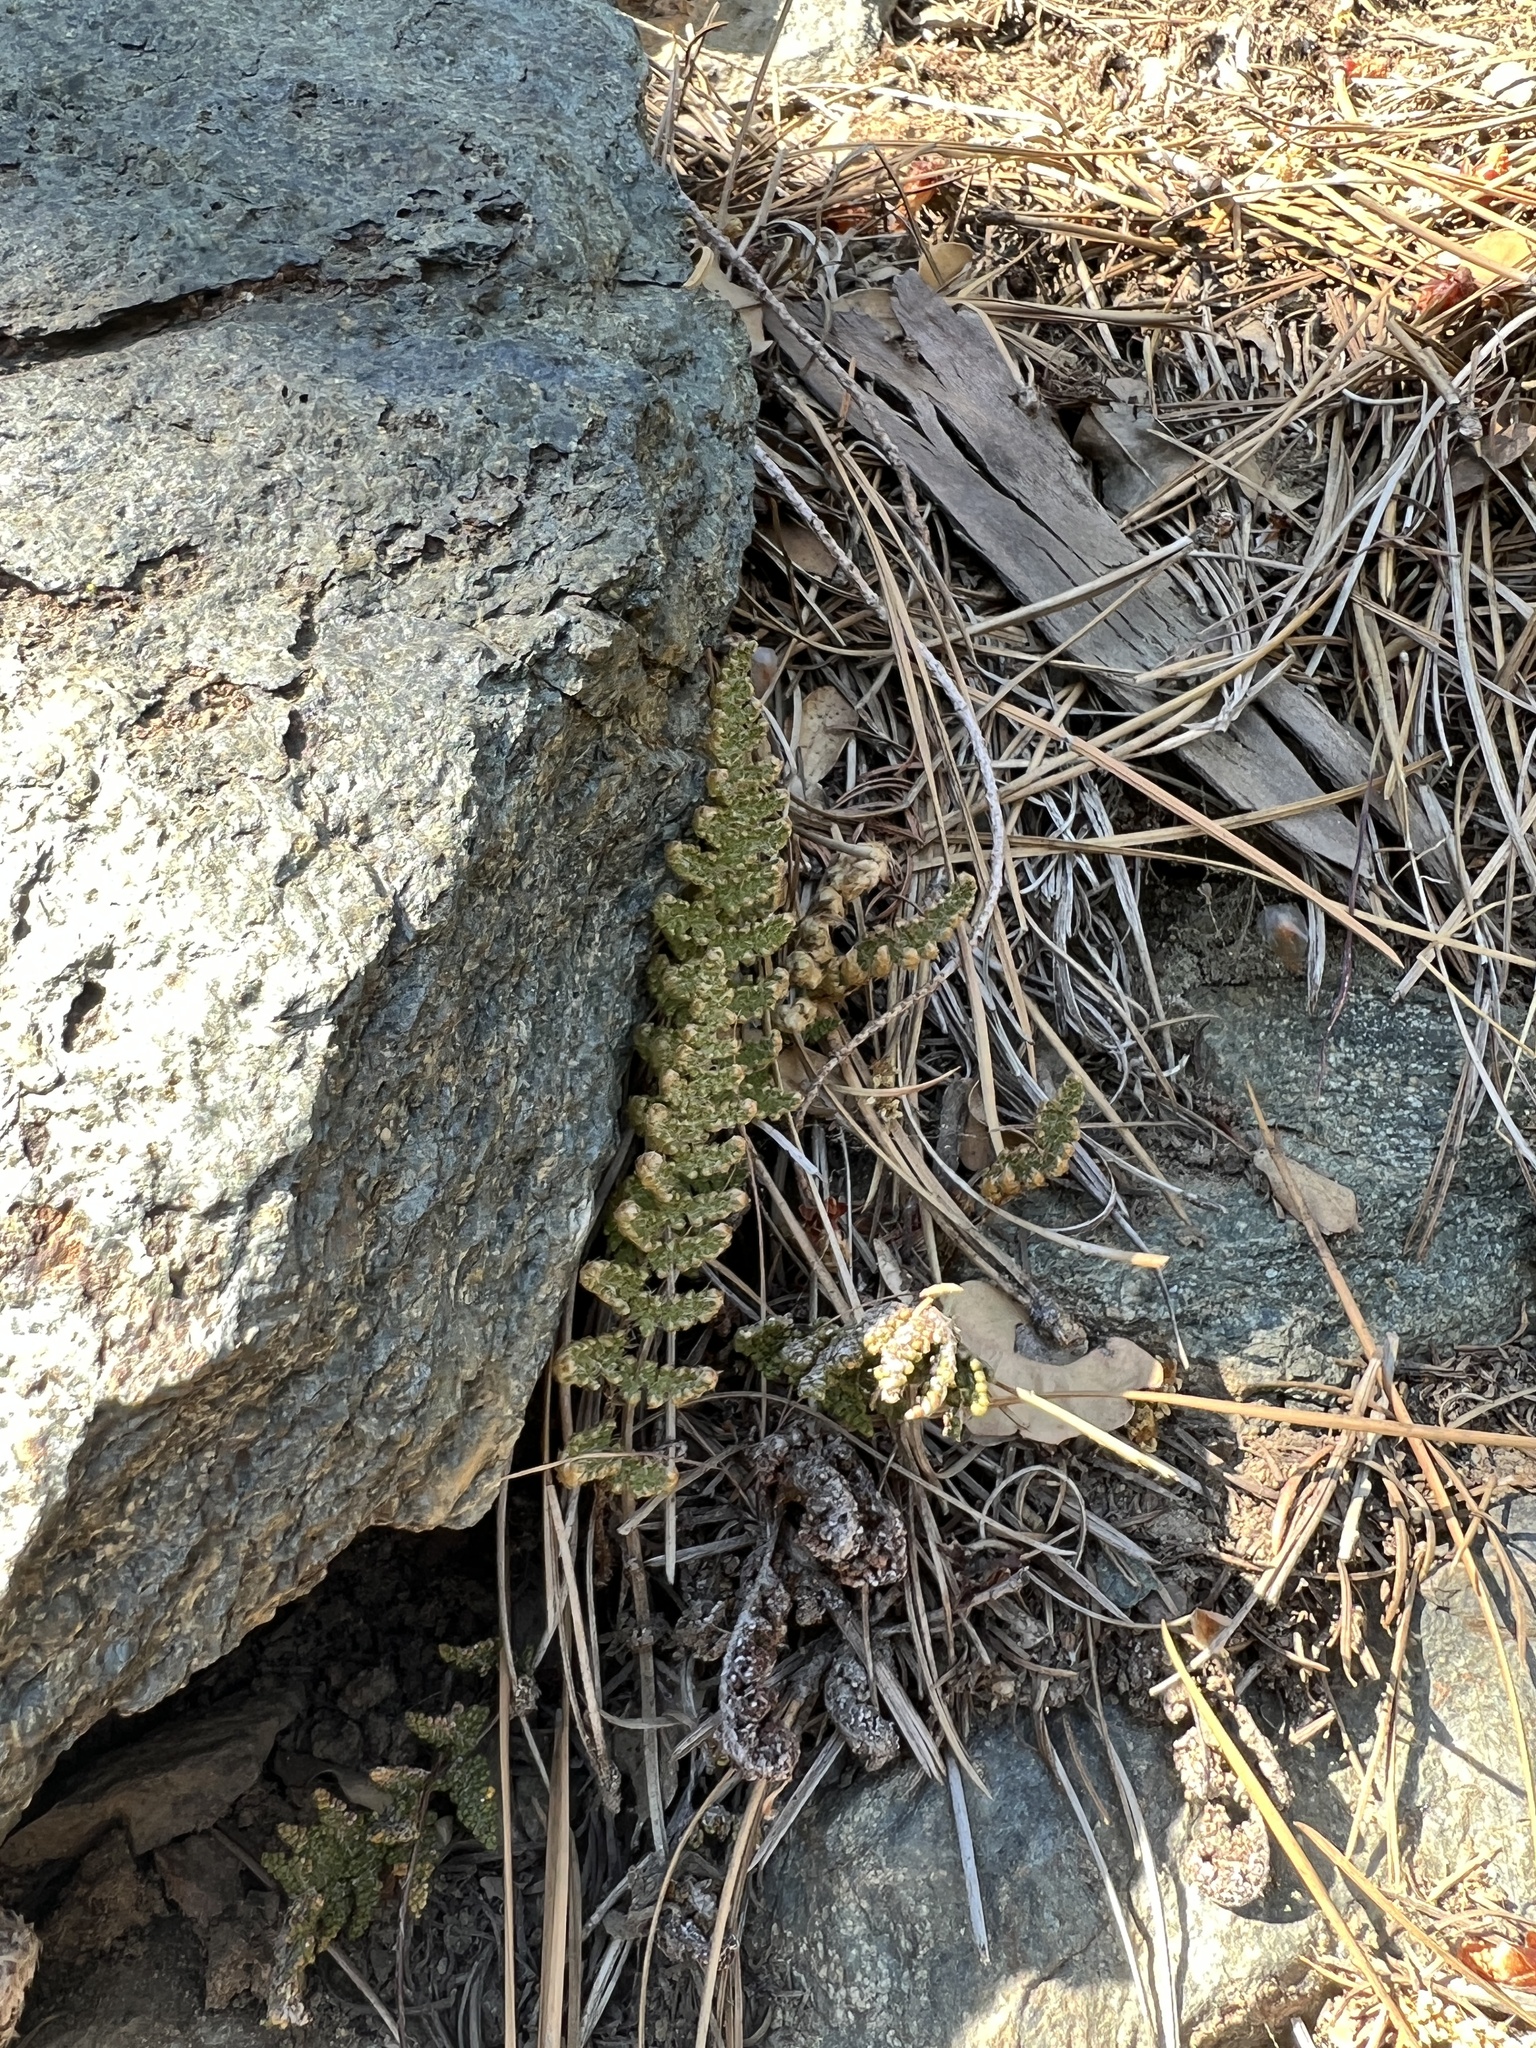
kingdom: Plantae
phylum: Tracheophyta
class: Polypodiopsida
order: Polypodiales
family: Pteridaceae
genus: Myriopteris
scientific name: Myriopteris covillei
